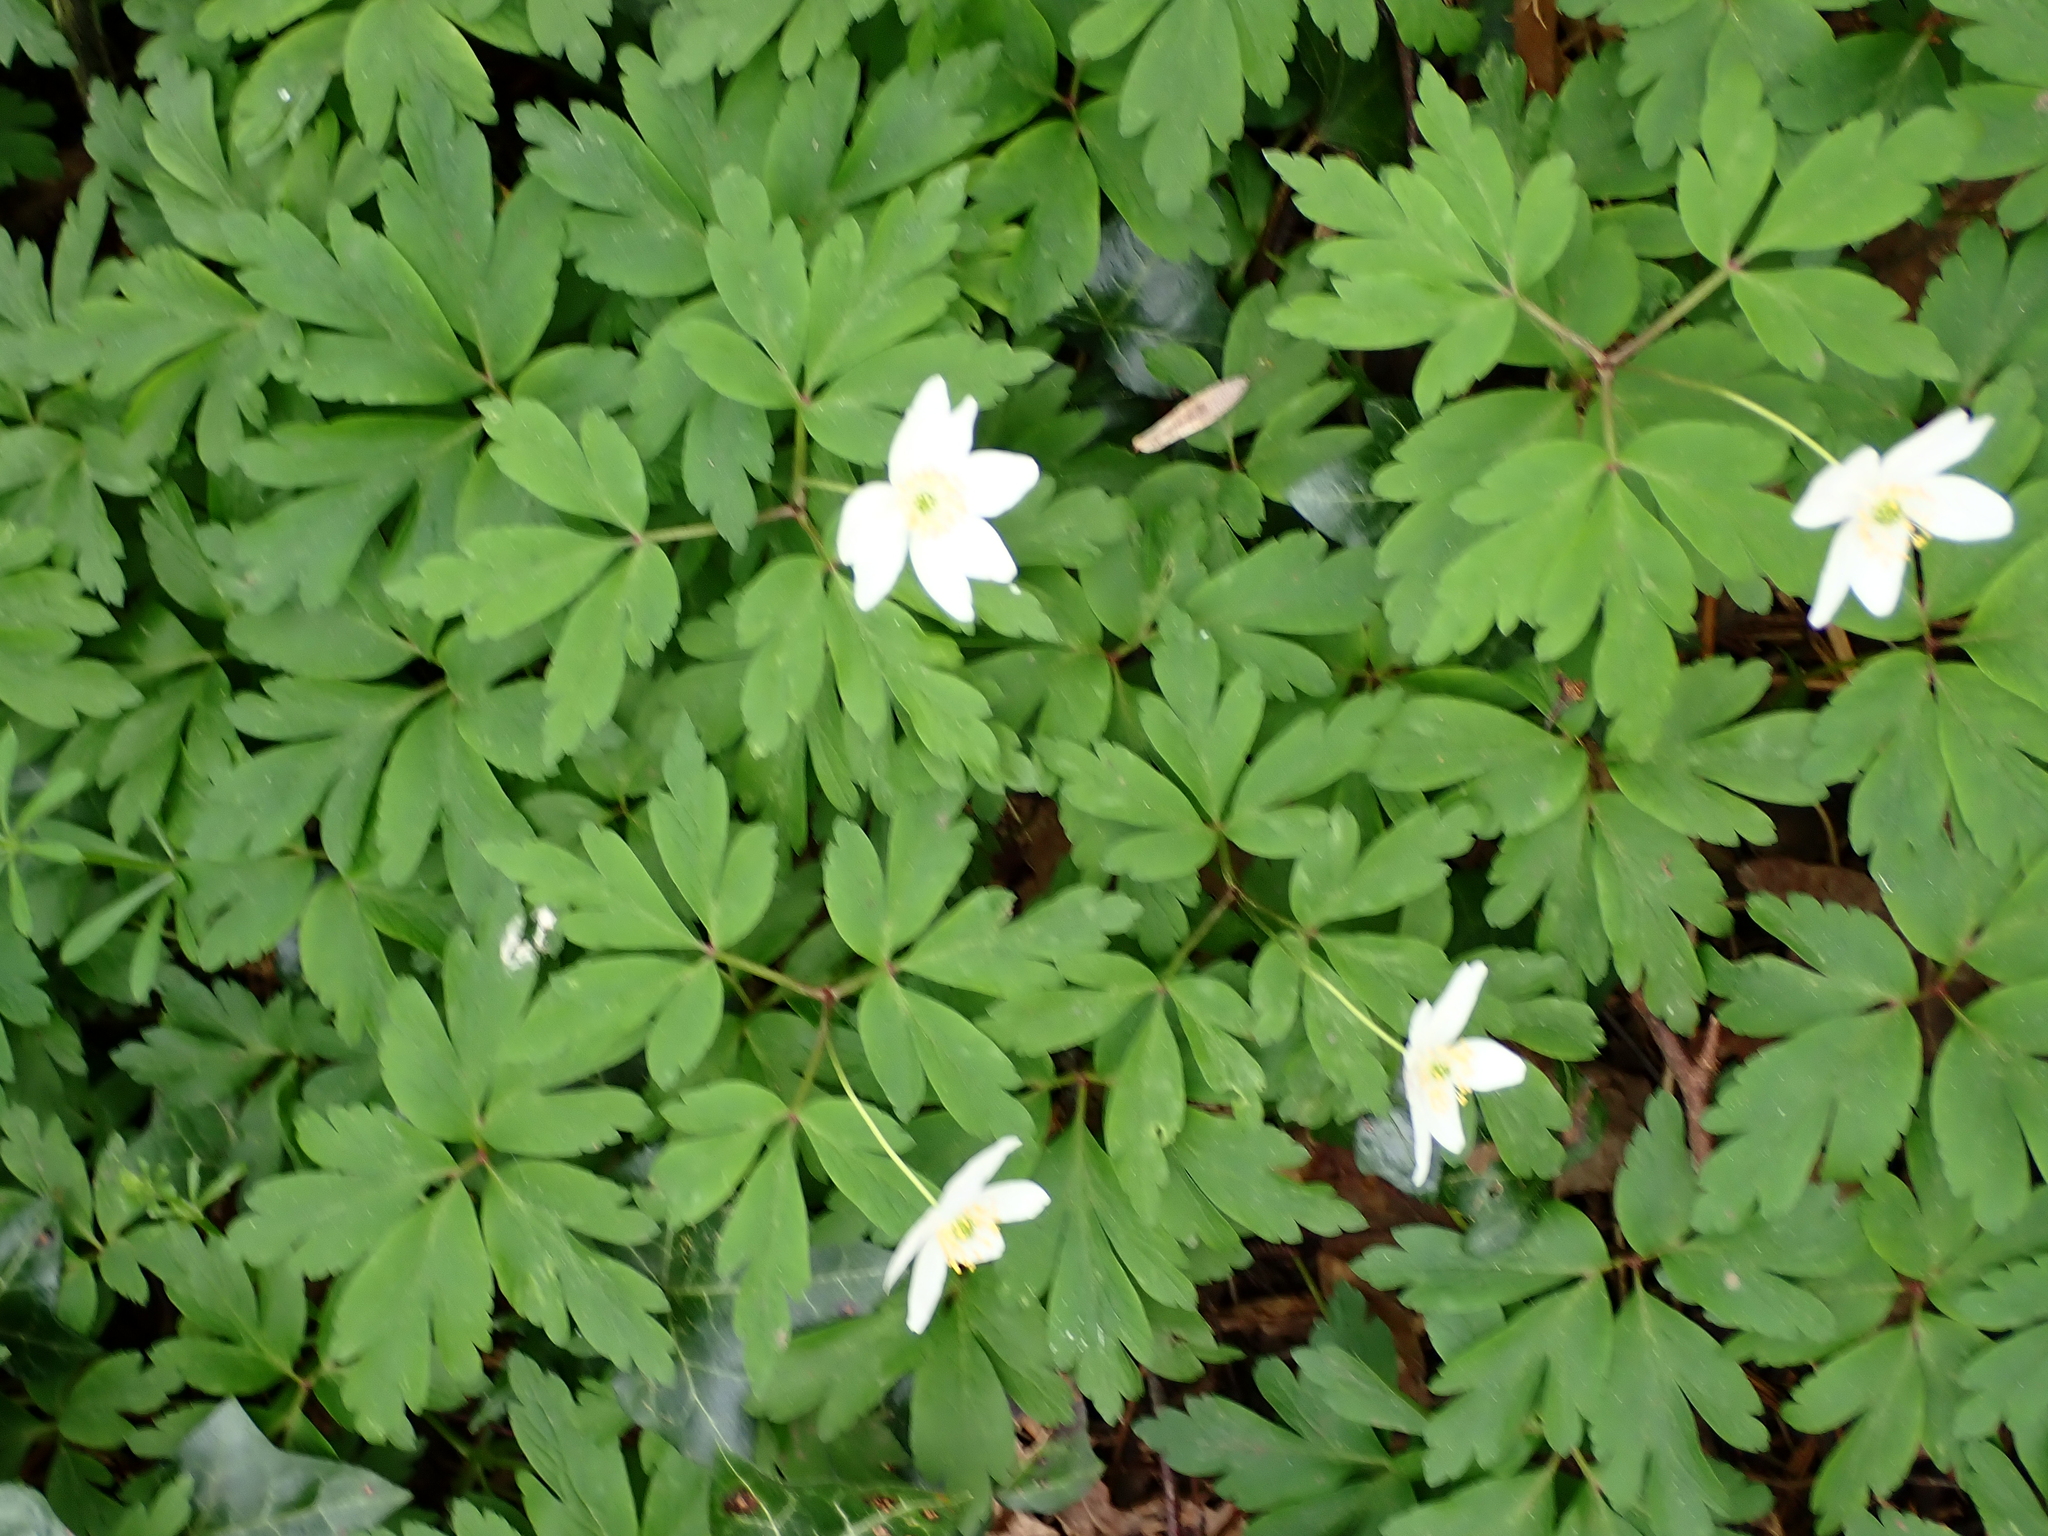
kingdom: Plantae
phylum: Tracheophyta
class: Magnoliopsida
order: Ranunculales
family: Ranunculaceae
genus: Anemone
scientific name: Anemone nemorosa
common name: Wood anemone
